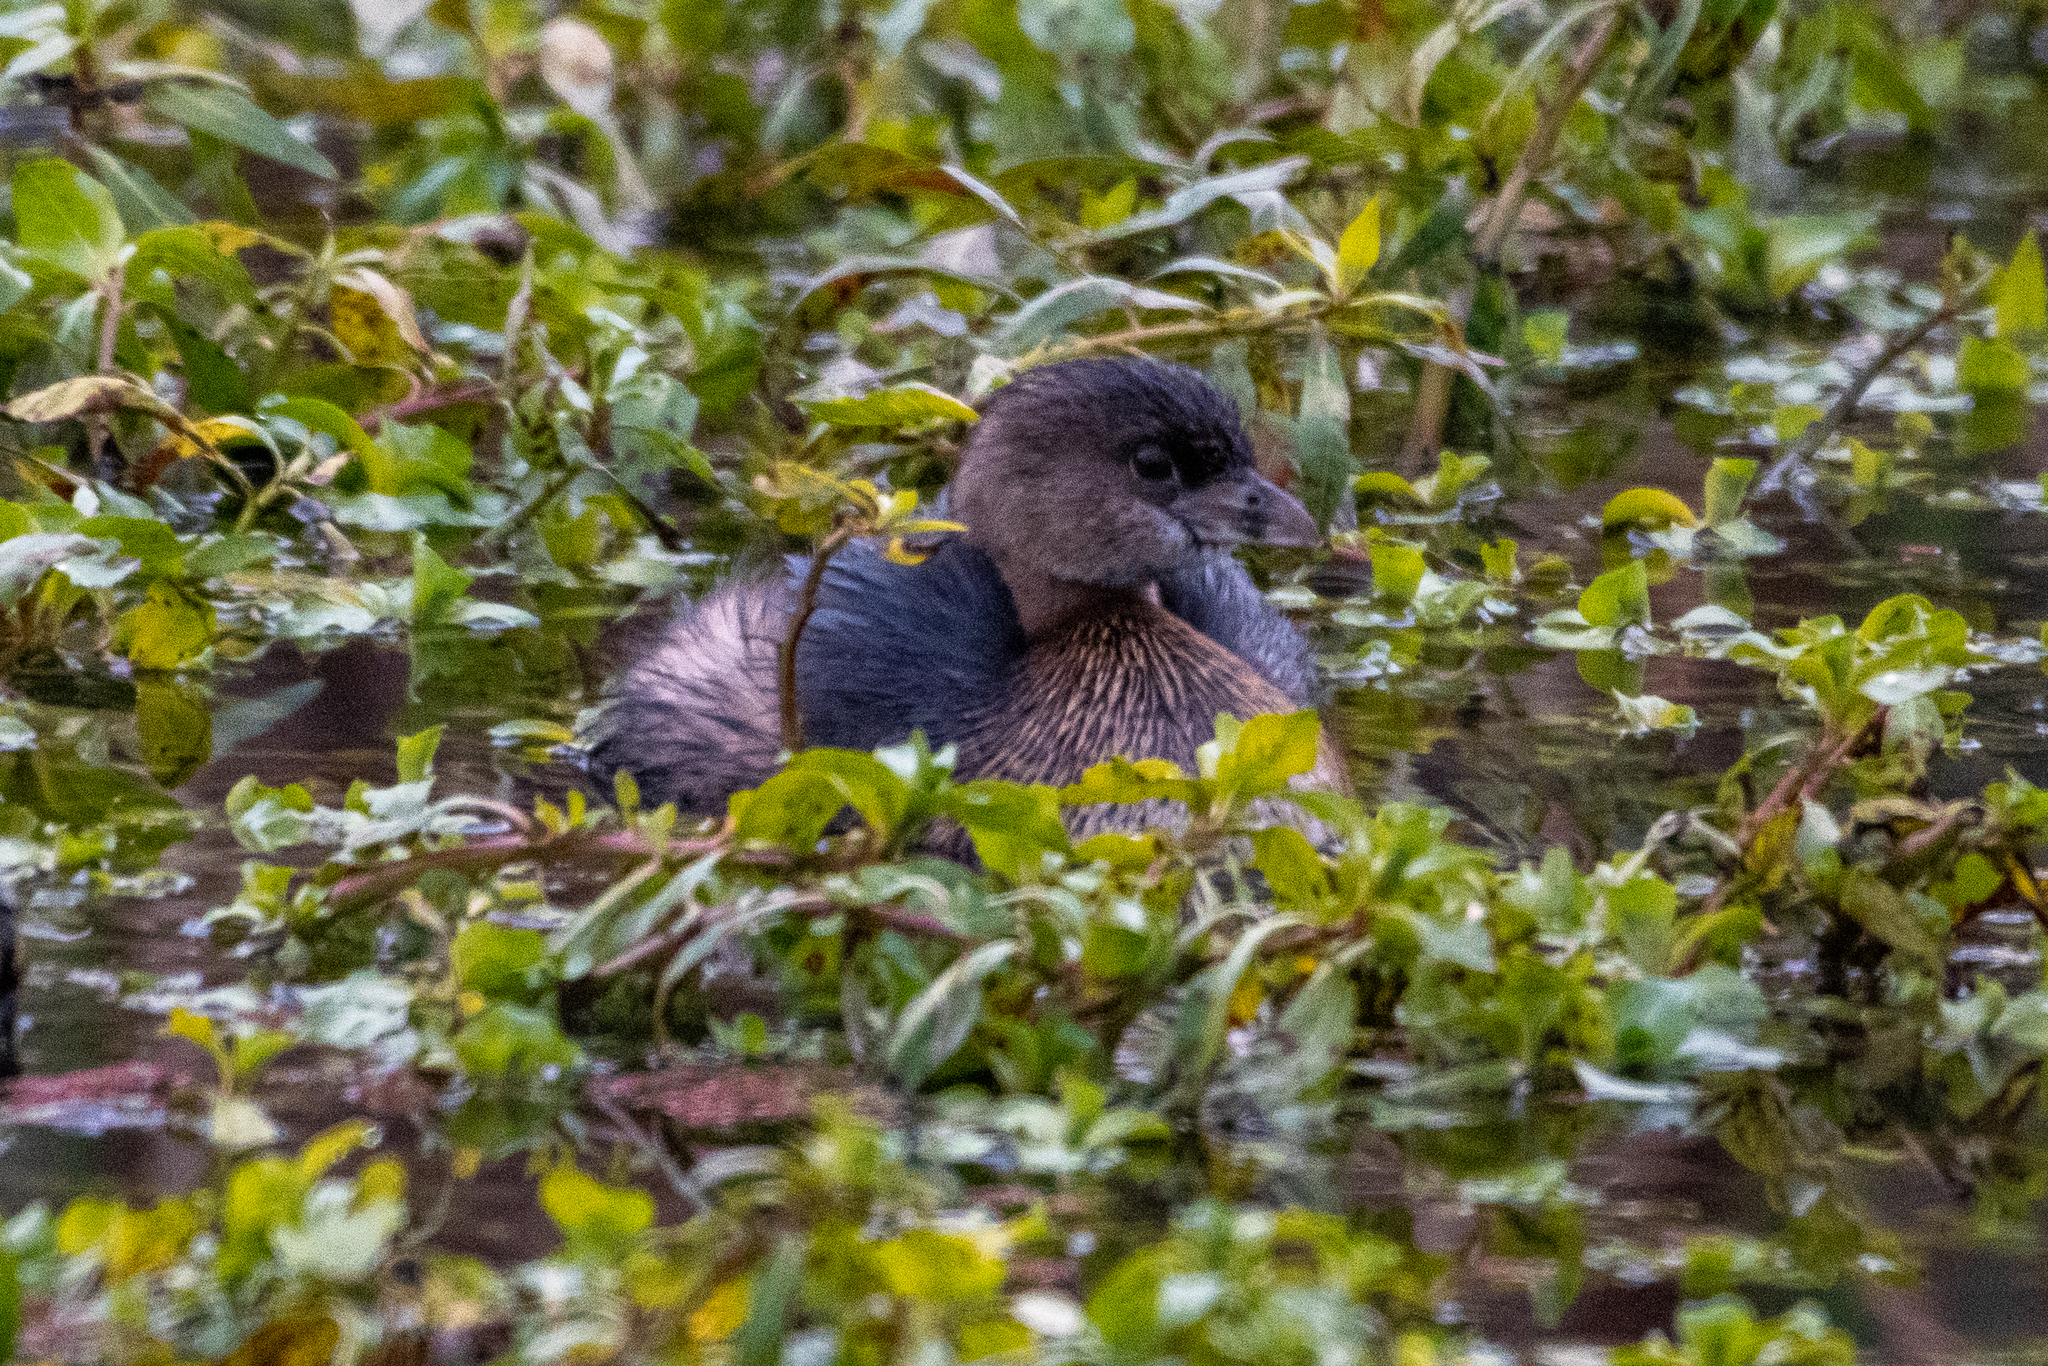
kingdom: Animalia
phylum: Chordata
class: Aves
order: Podicipediformes
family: Podicipedidae
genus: Podilymbus
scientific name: Podilymbus podiceps
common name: Pied-billed grebe
